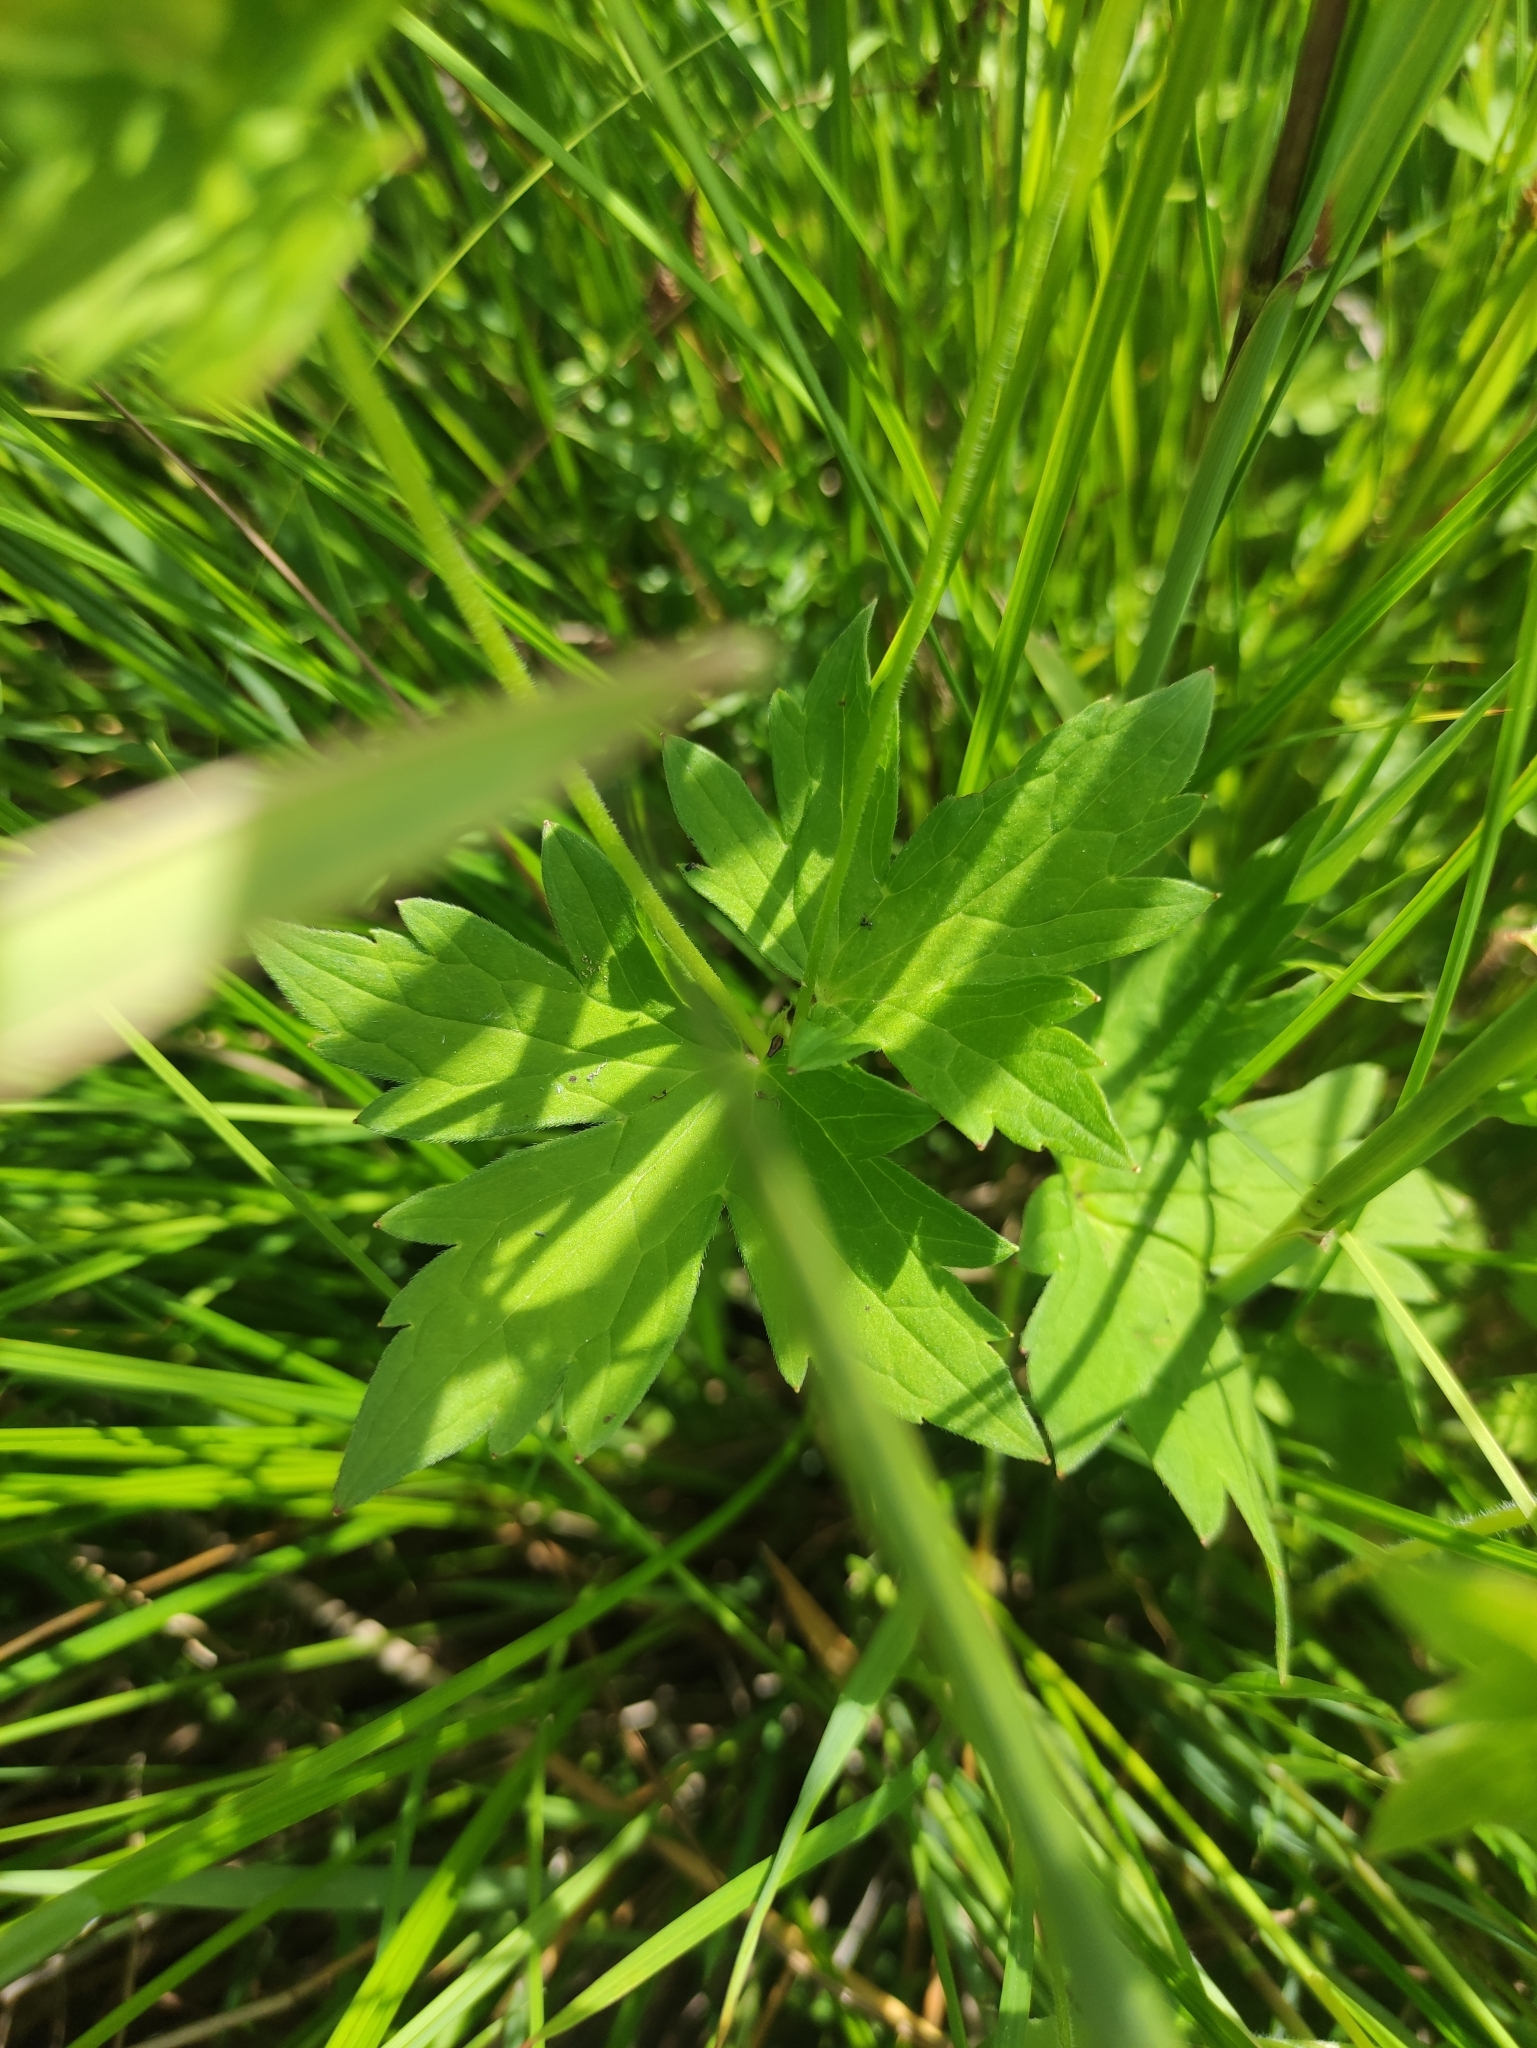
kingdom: Plantae
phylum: Tracheophyta
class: Magnoliopsida
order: Geraniales
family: Geraniaceae
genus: Geranium
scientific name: Geranium wlassovianum
